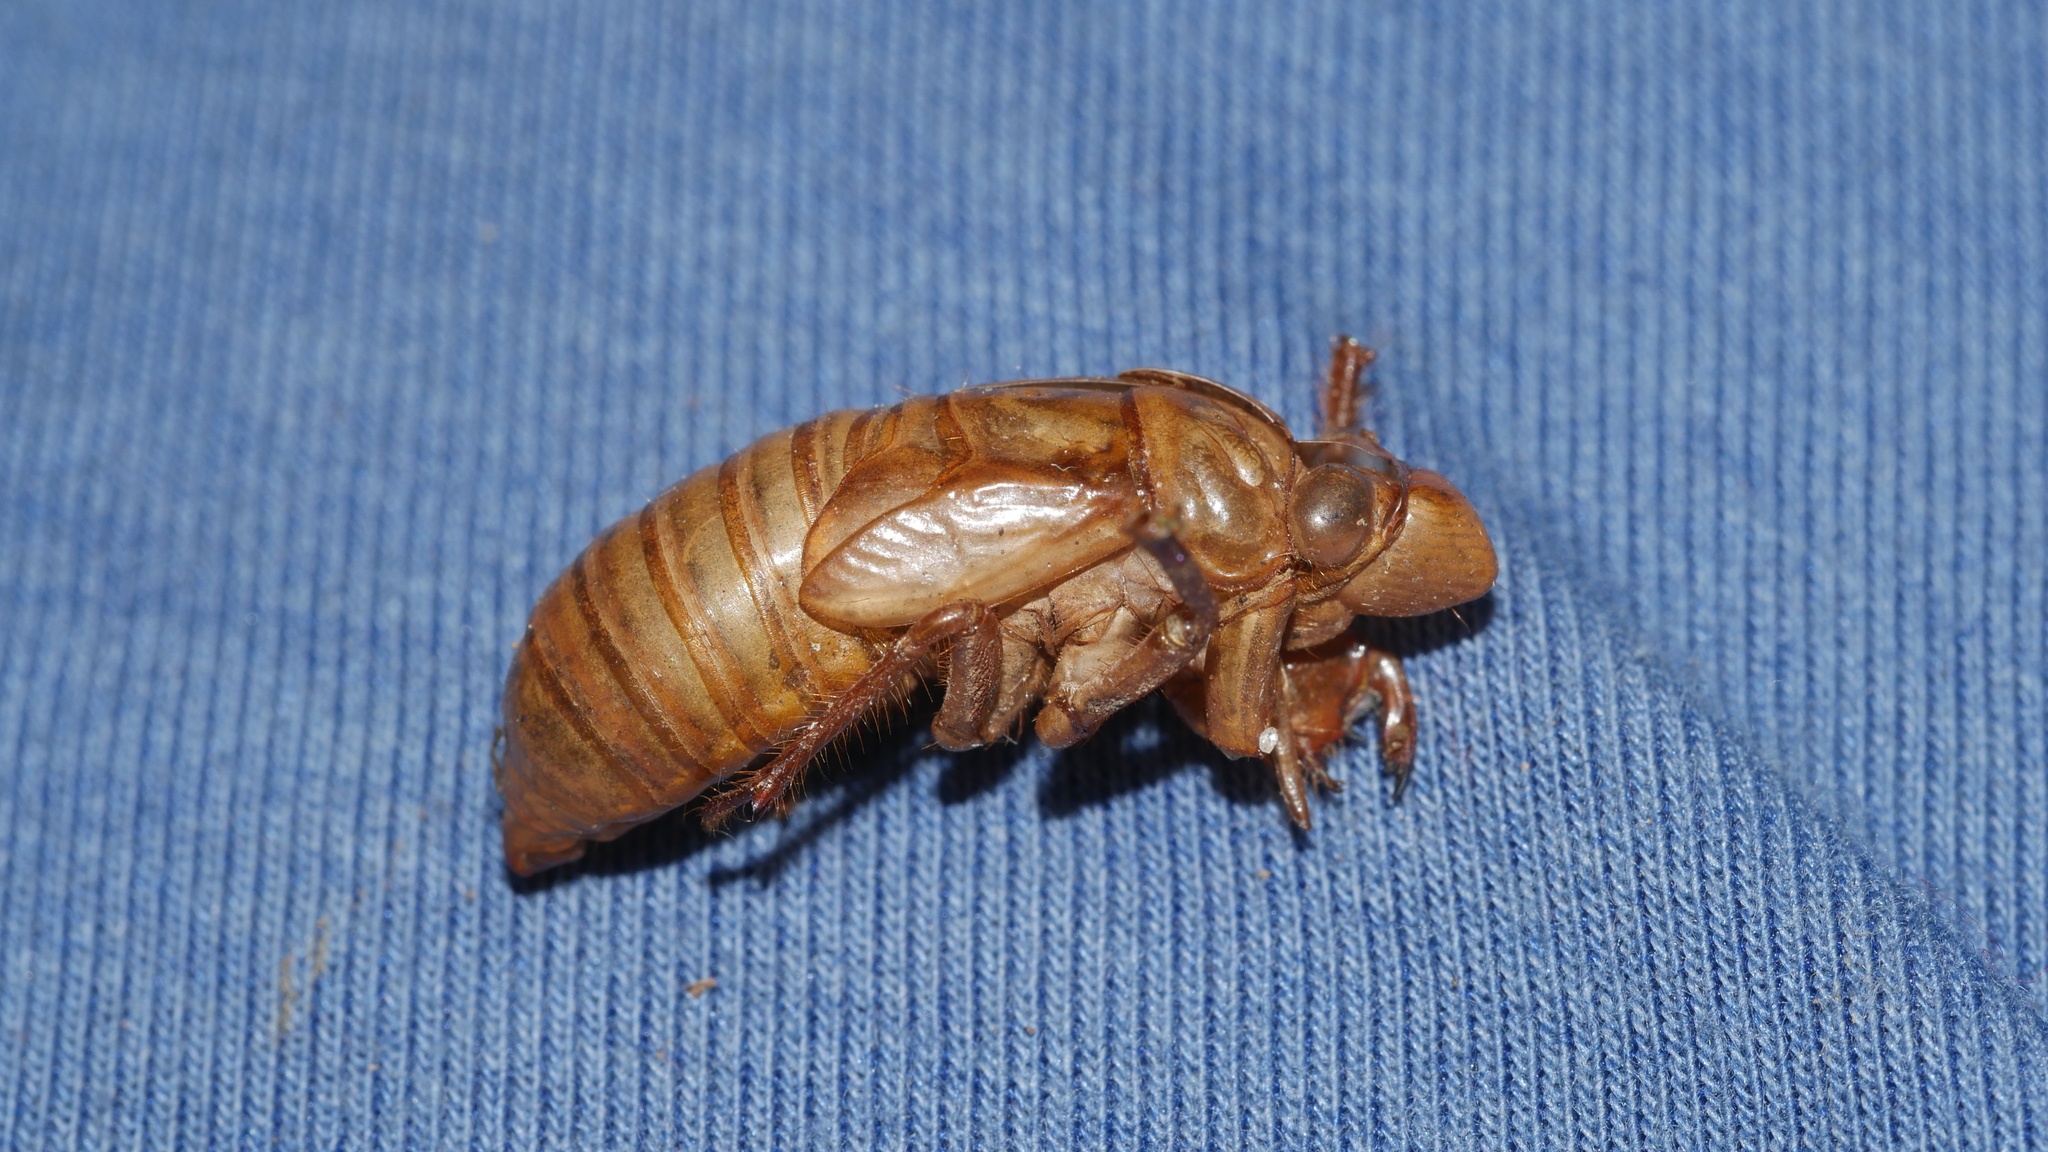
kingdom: Animalia
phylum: Arthropoda
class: Insecta
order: Hemiptera
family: Cicadidae
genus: Magicicada
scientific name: Magicicada
